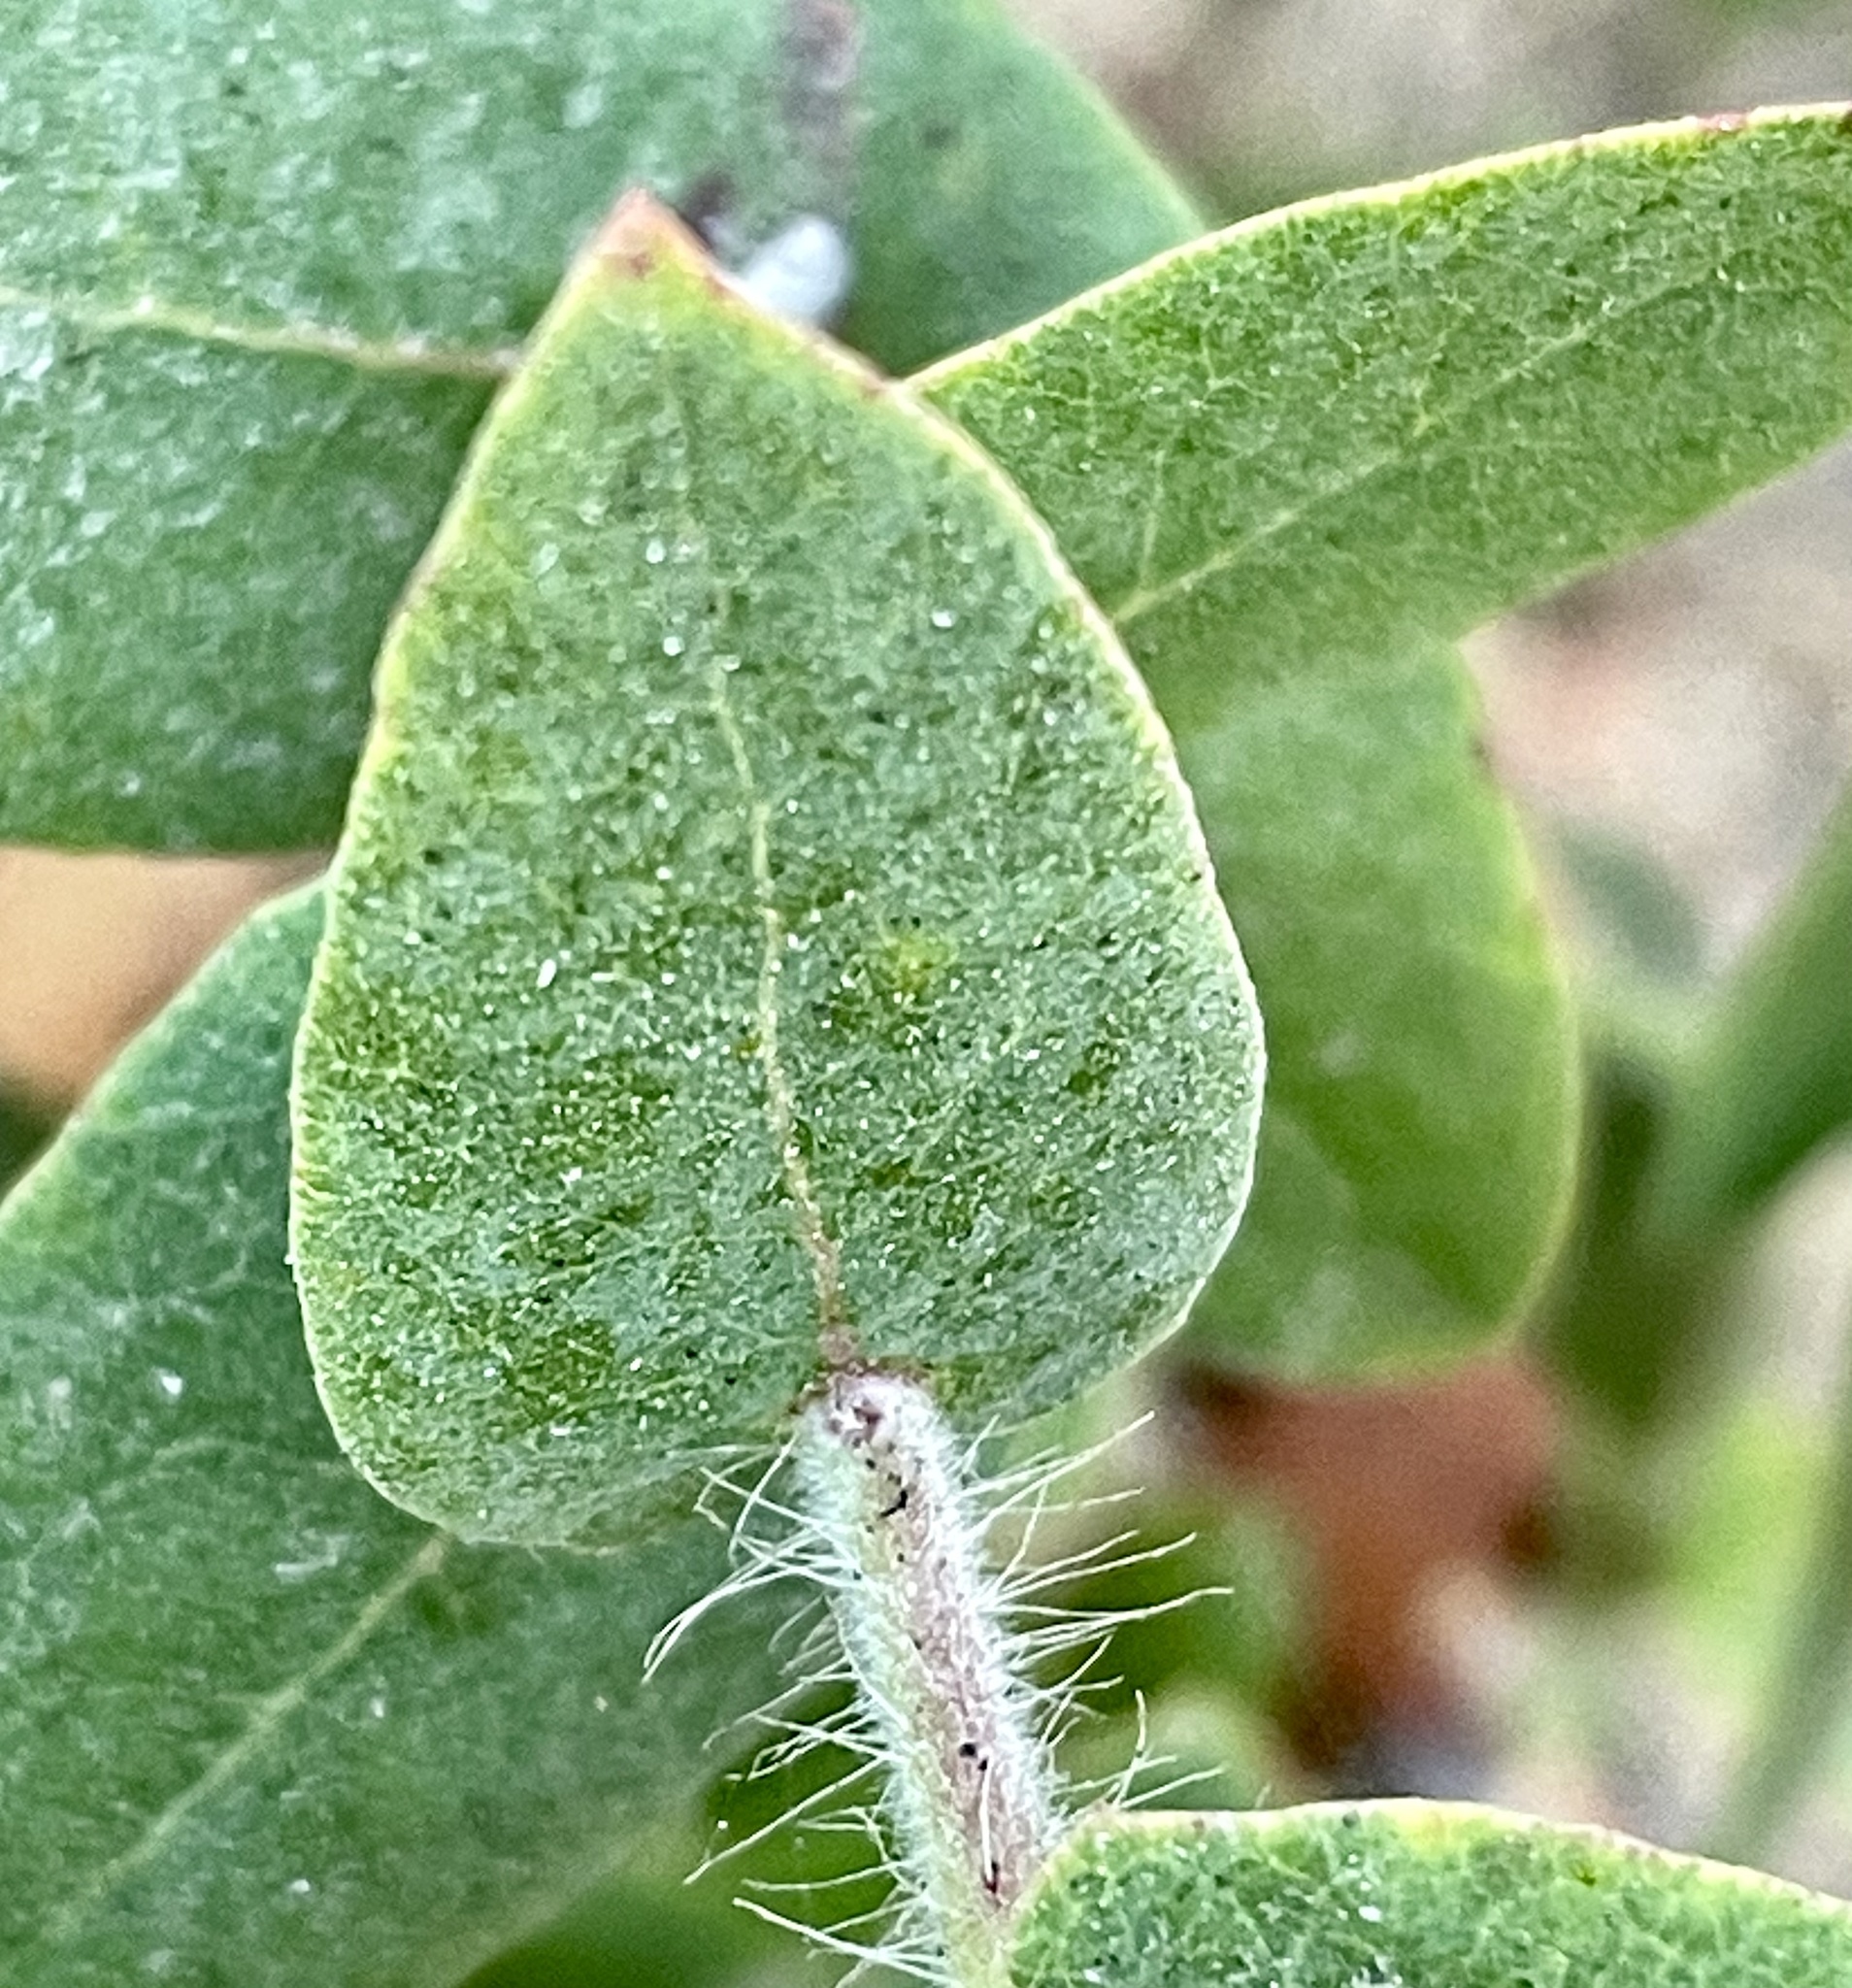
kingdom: Plantae
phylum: Tracheophyta
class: Magnoliopsida
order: Ericales
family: Ericaceae
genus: Arctostaphylos
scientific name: Arctostaphylos pajaroensis
